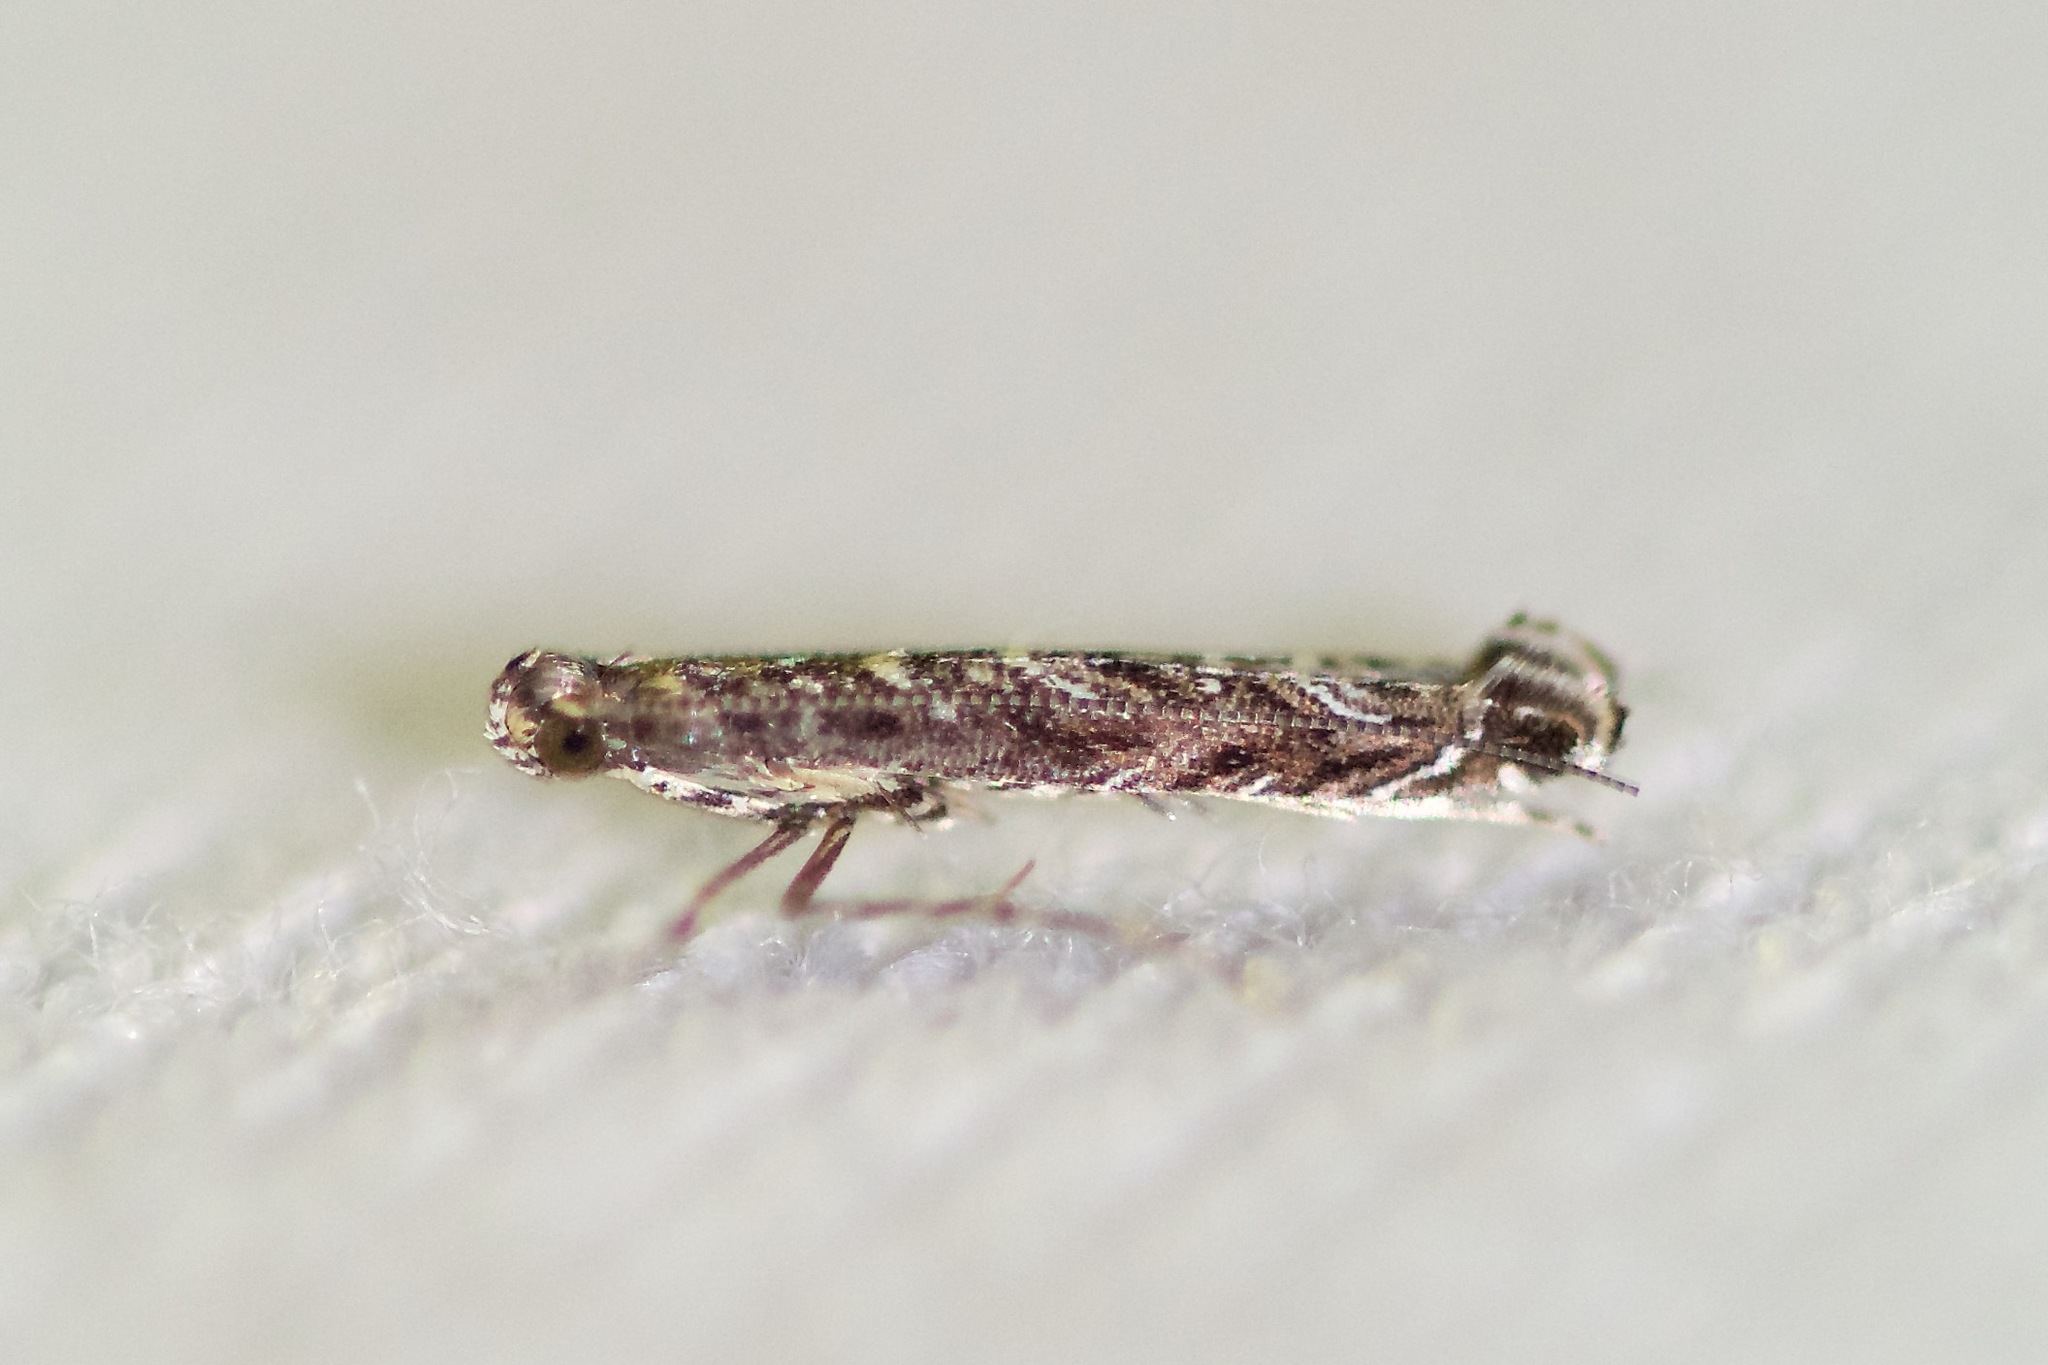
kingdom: Animalia
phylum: Arthropoda
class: Insecta
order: Lepidoptera
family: Gracillariidae
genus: Neurobathra
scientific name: Neurobathra strigifinitella
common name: Finite-channeled leafminer moth
